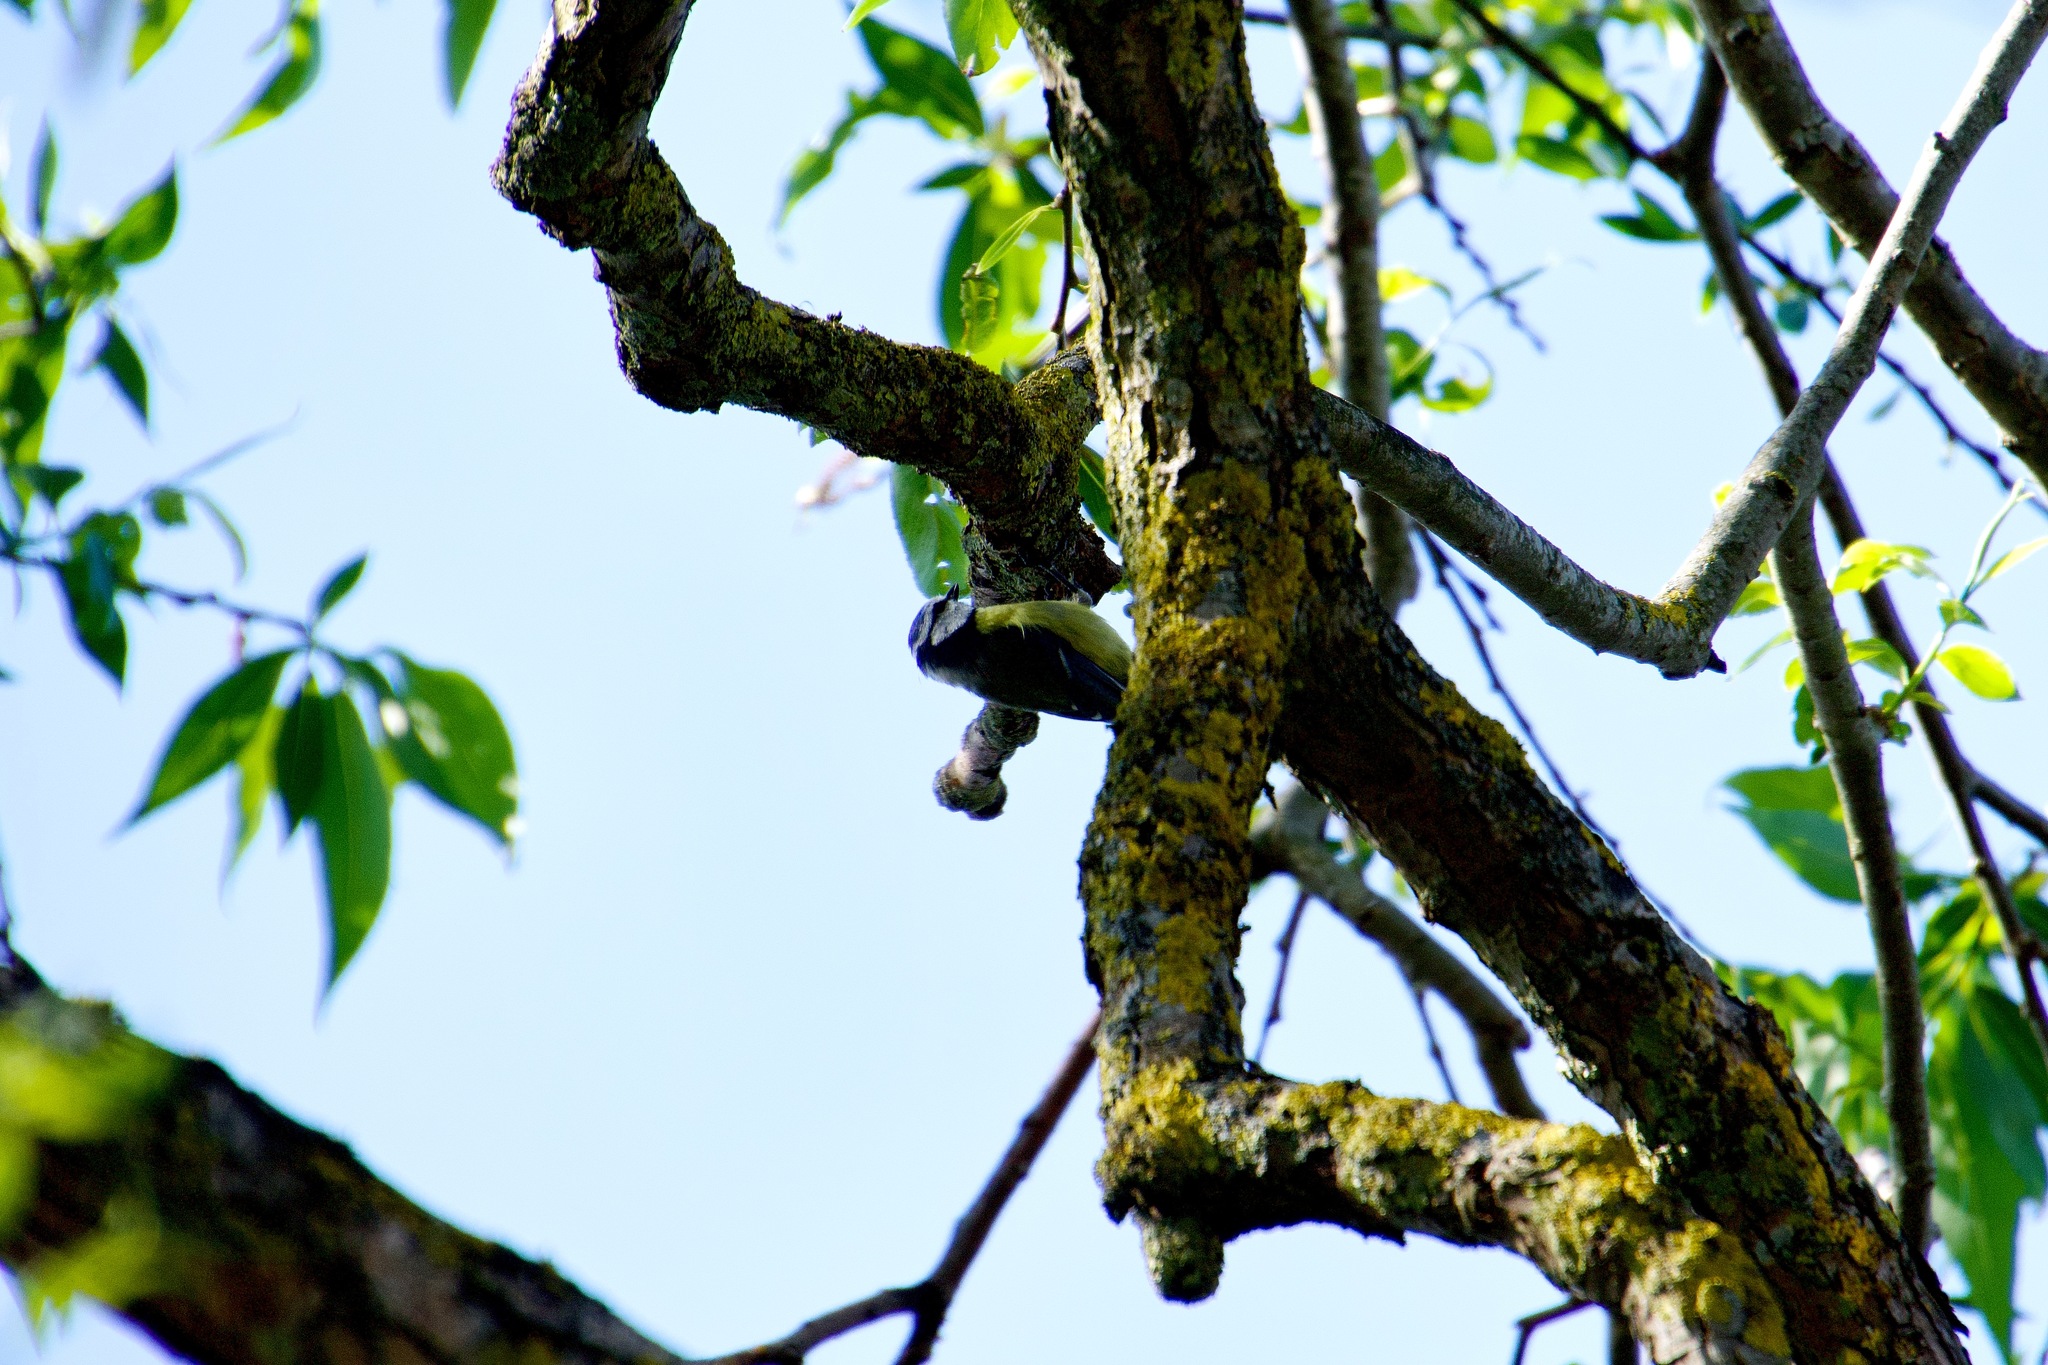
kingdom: Animalia
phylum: Chordata
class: Aves
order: Passeriformes
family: Paridae
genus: Cyanistes
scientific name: Cyanistes caeruleus
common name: Eurasian blue tit
